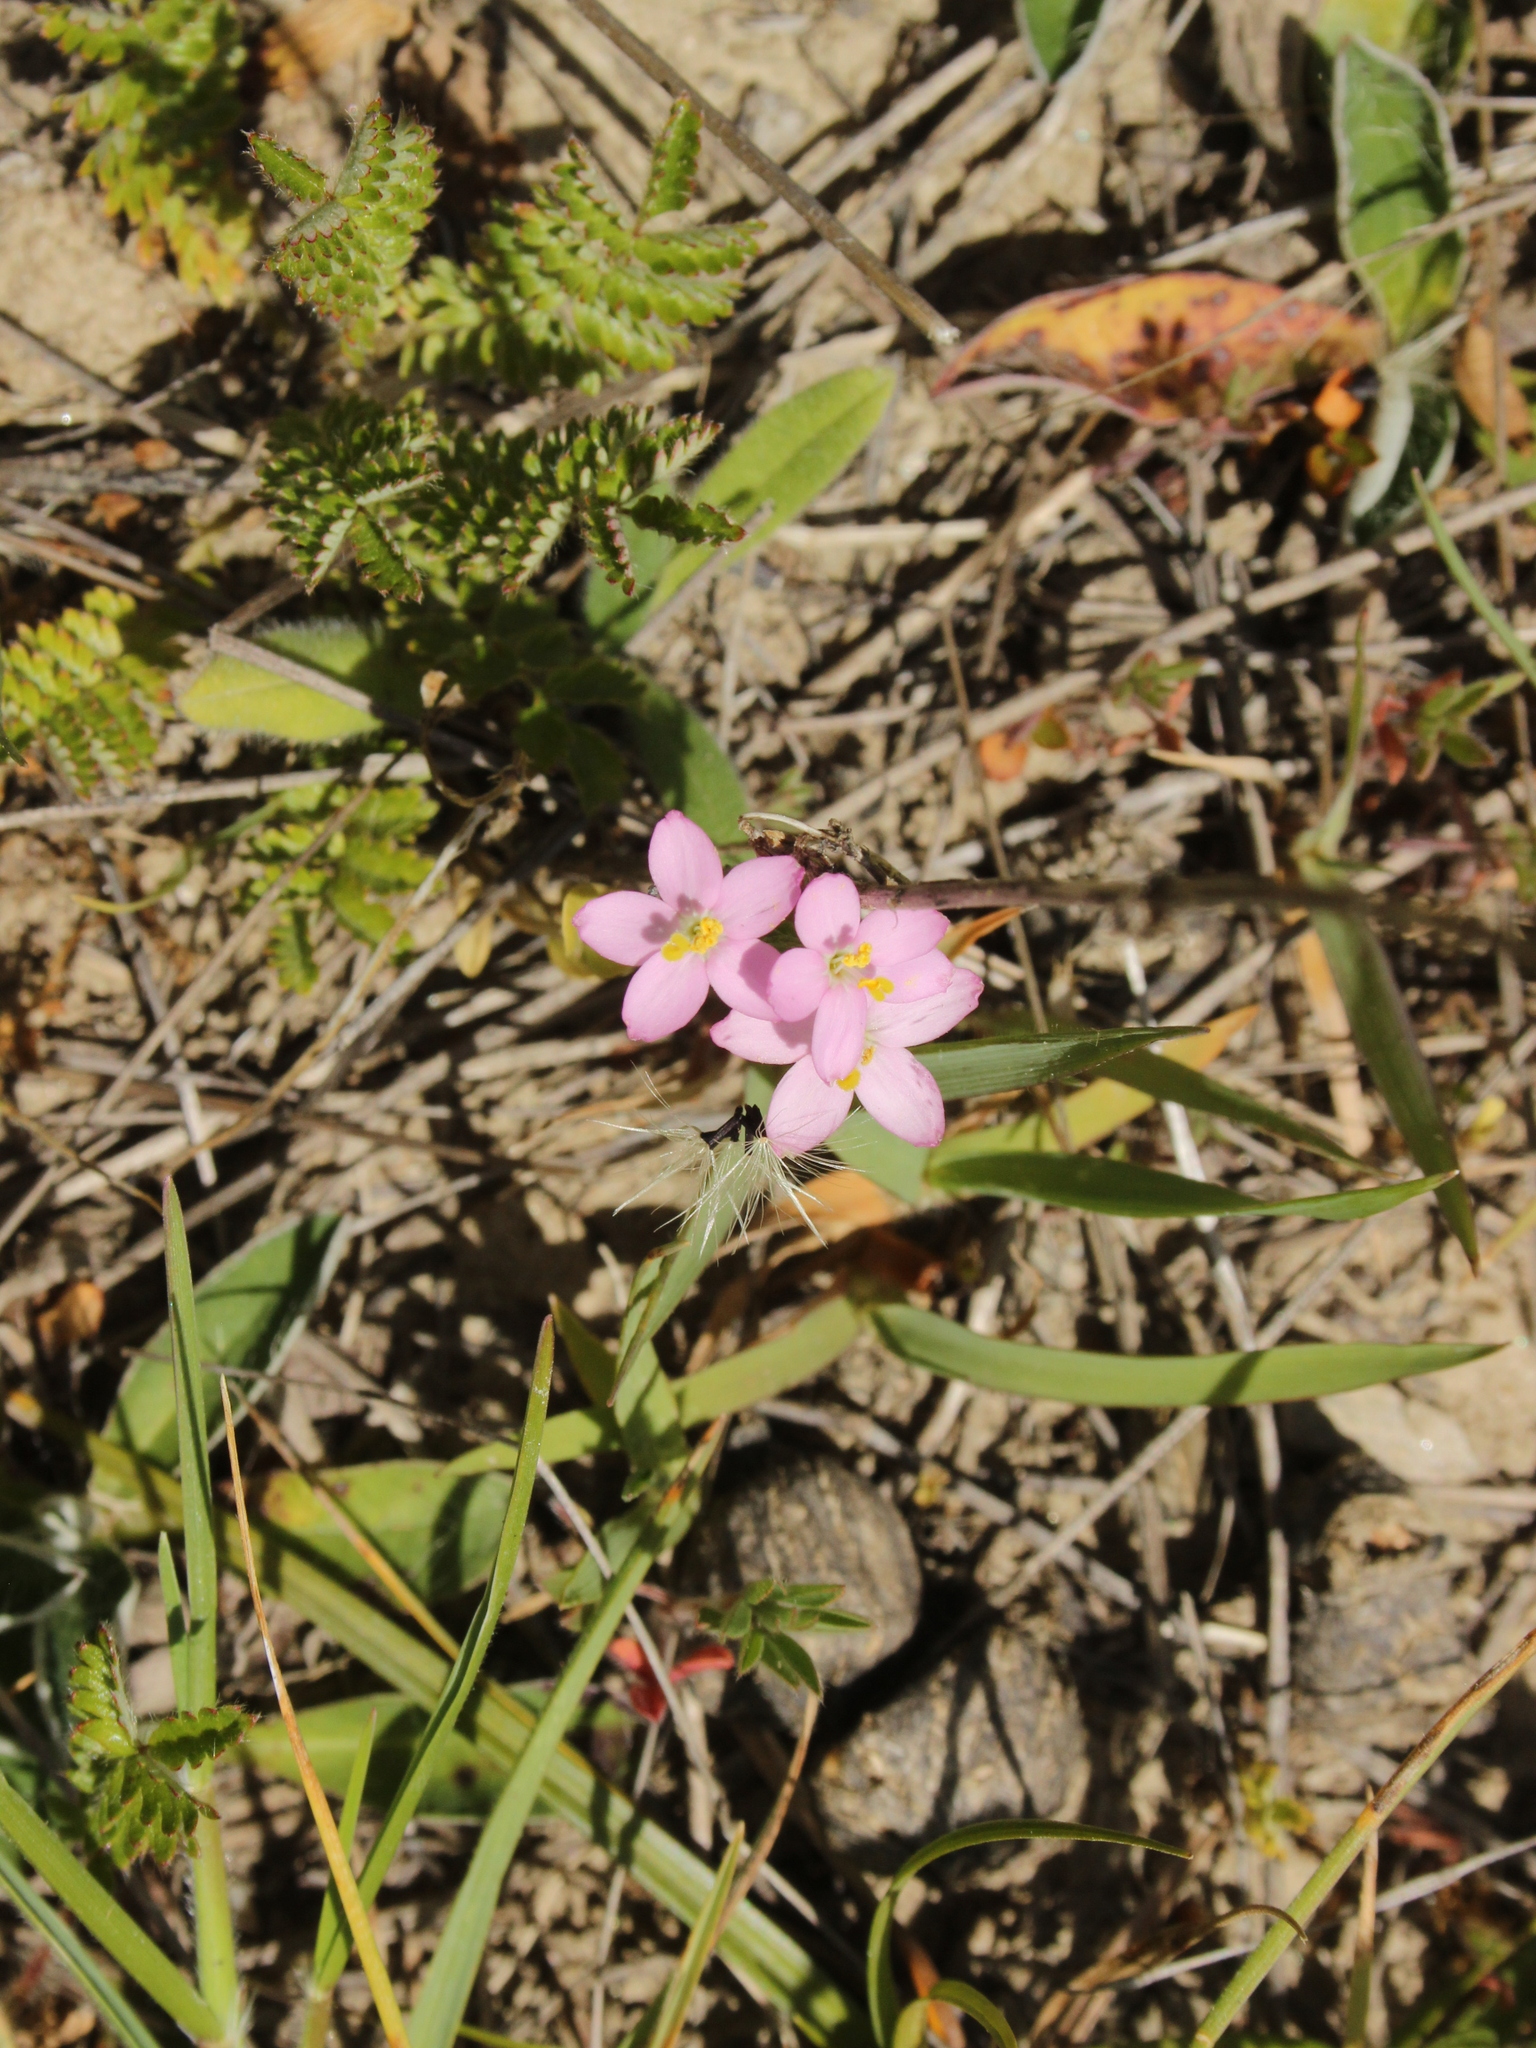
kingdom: Plantae
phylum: Tracheophyta
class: Magnoliopsida
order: Gentianales
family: Gentianaceae
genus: Centaurium
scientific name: Centaurium erythraea
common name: Common centaury
